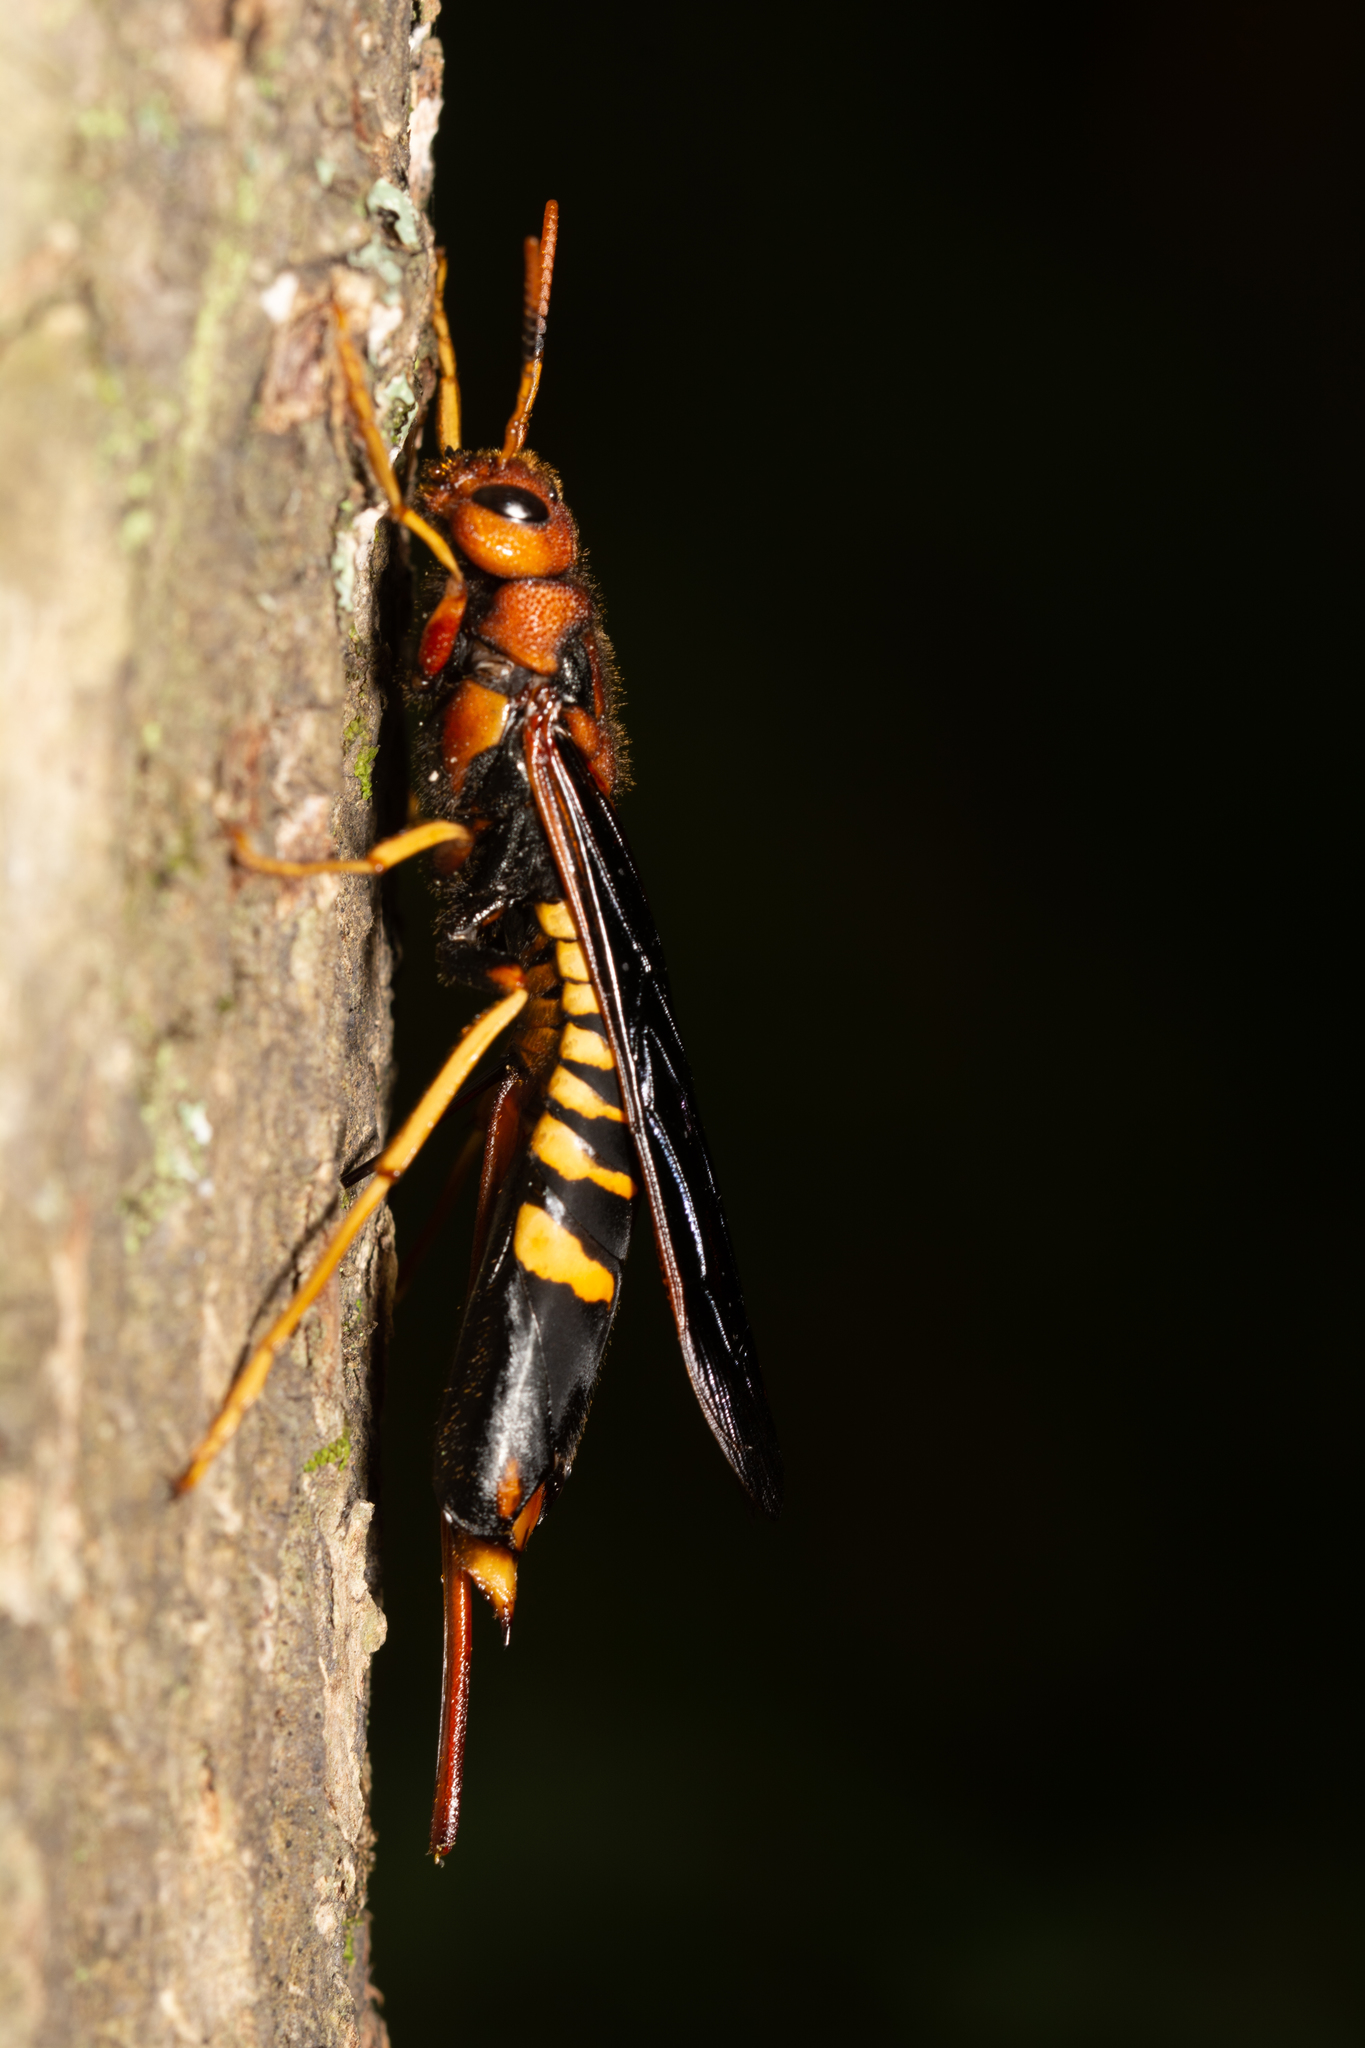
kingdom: Animalia
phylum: Arthropoda
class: Insecta
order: Hymenoptera
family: Siricidae
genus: Tremex
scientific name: Tremex columba
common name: Wasp
